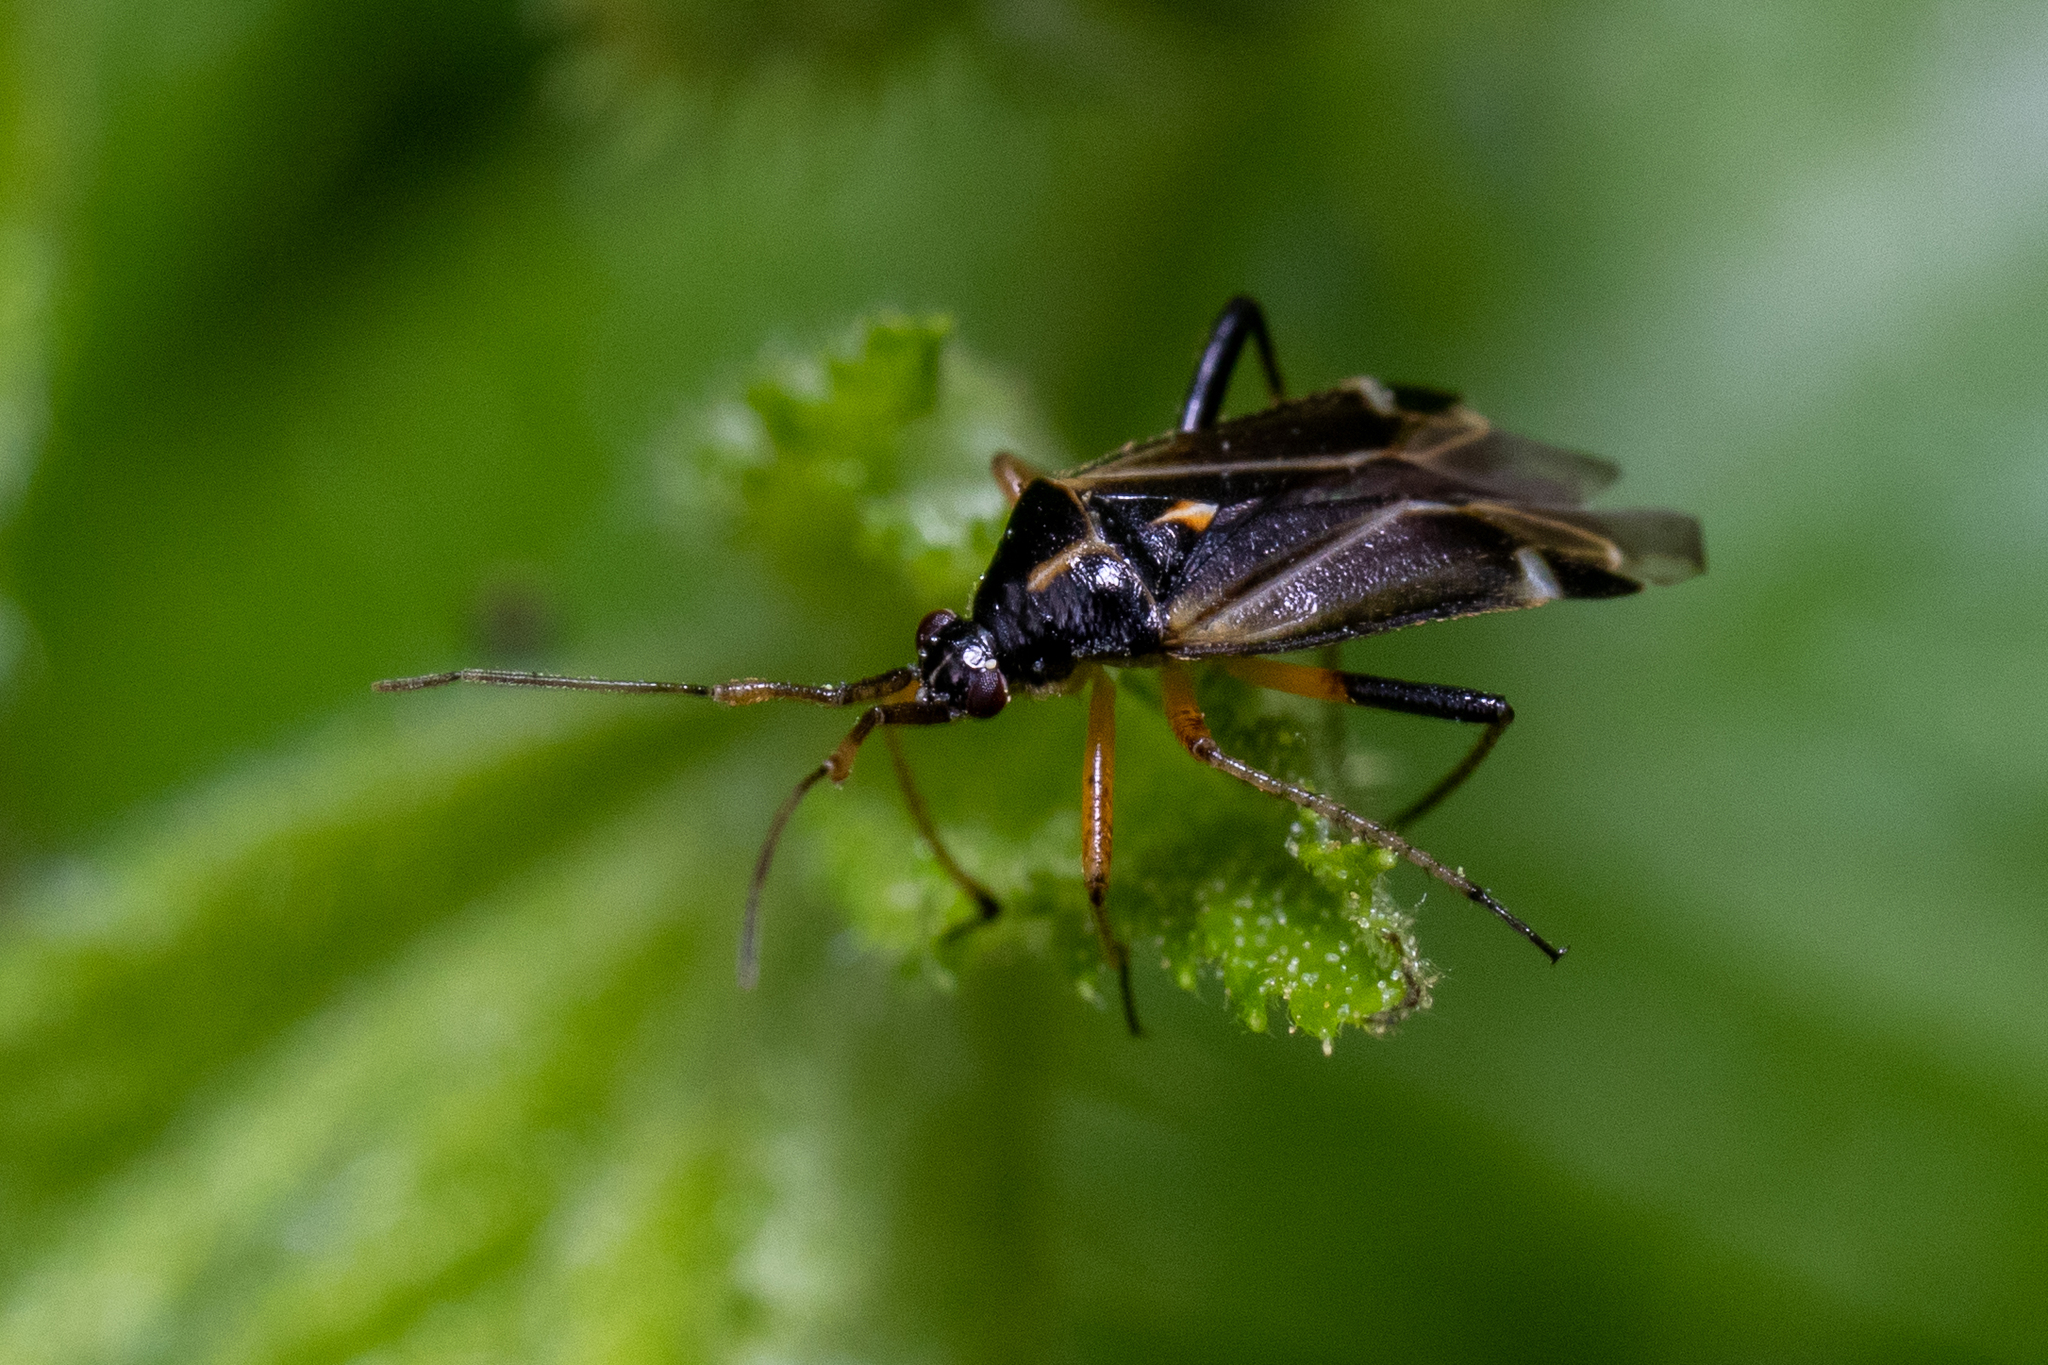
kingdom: Animalia
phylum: Arthropoda
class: Insecta
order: Hemiptera
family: Miridae
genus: Harpocera
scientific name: Harpocera thoracica
